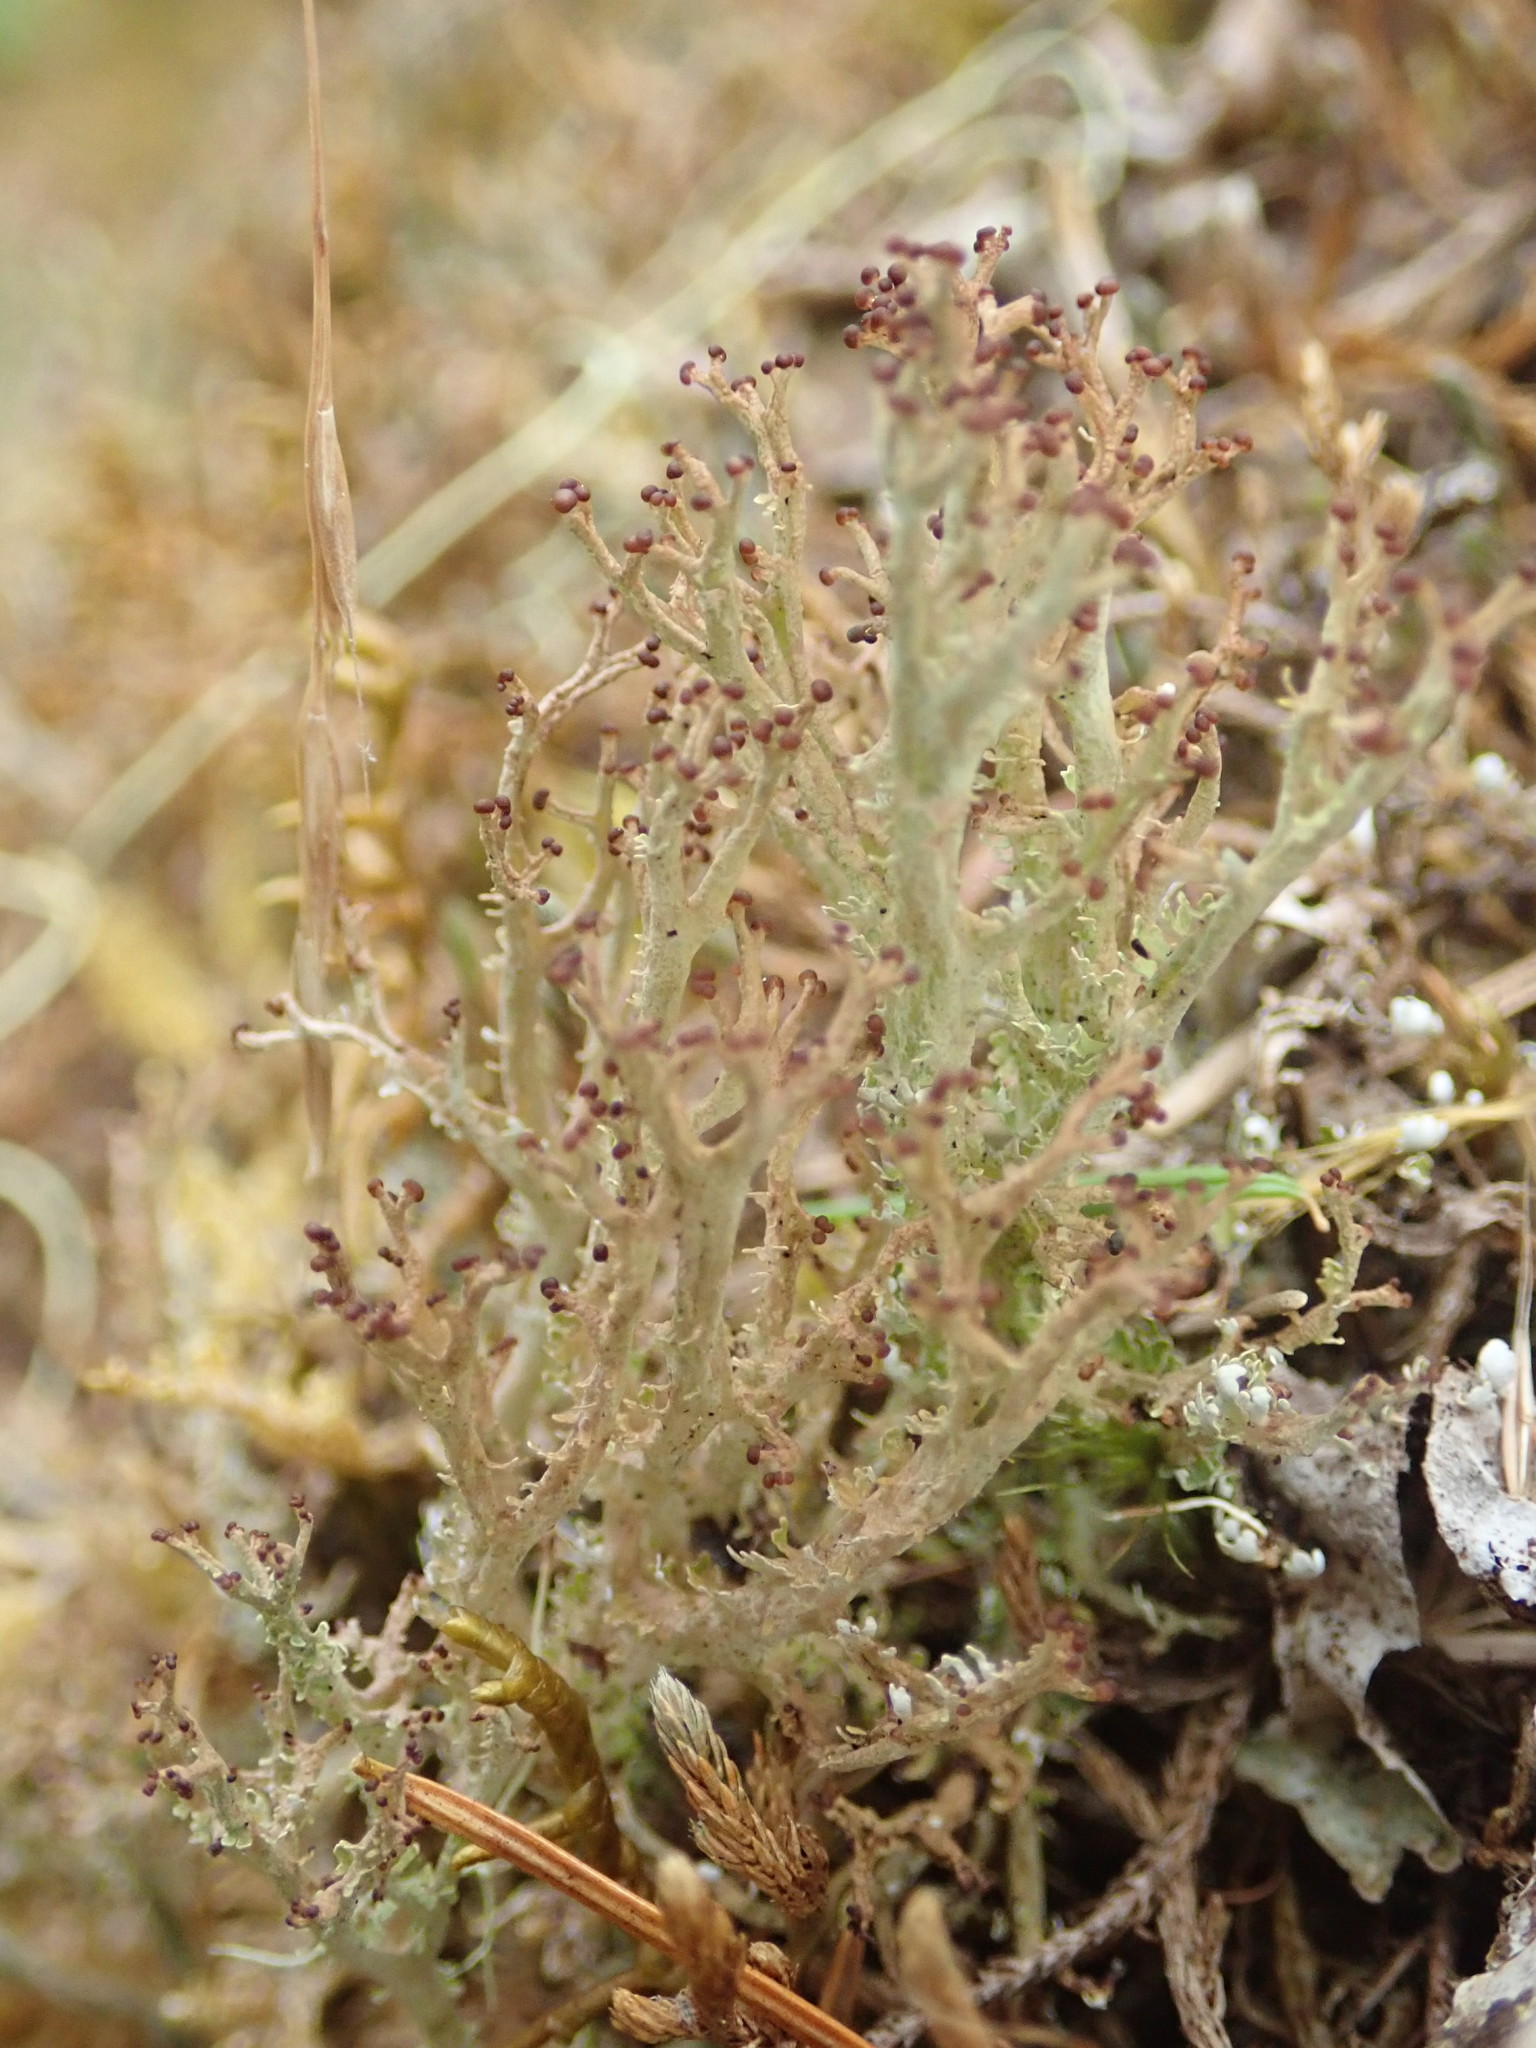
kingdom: Fungi
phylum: Ascomycota
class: Lecanoromycetes
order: Lecanorales
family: Cladoniaceae
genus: Cladonia
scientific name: Cladonia furcata
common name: Many-forked cladonia
